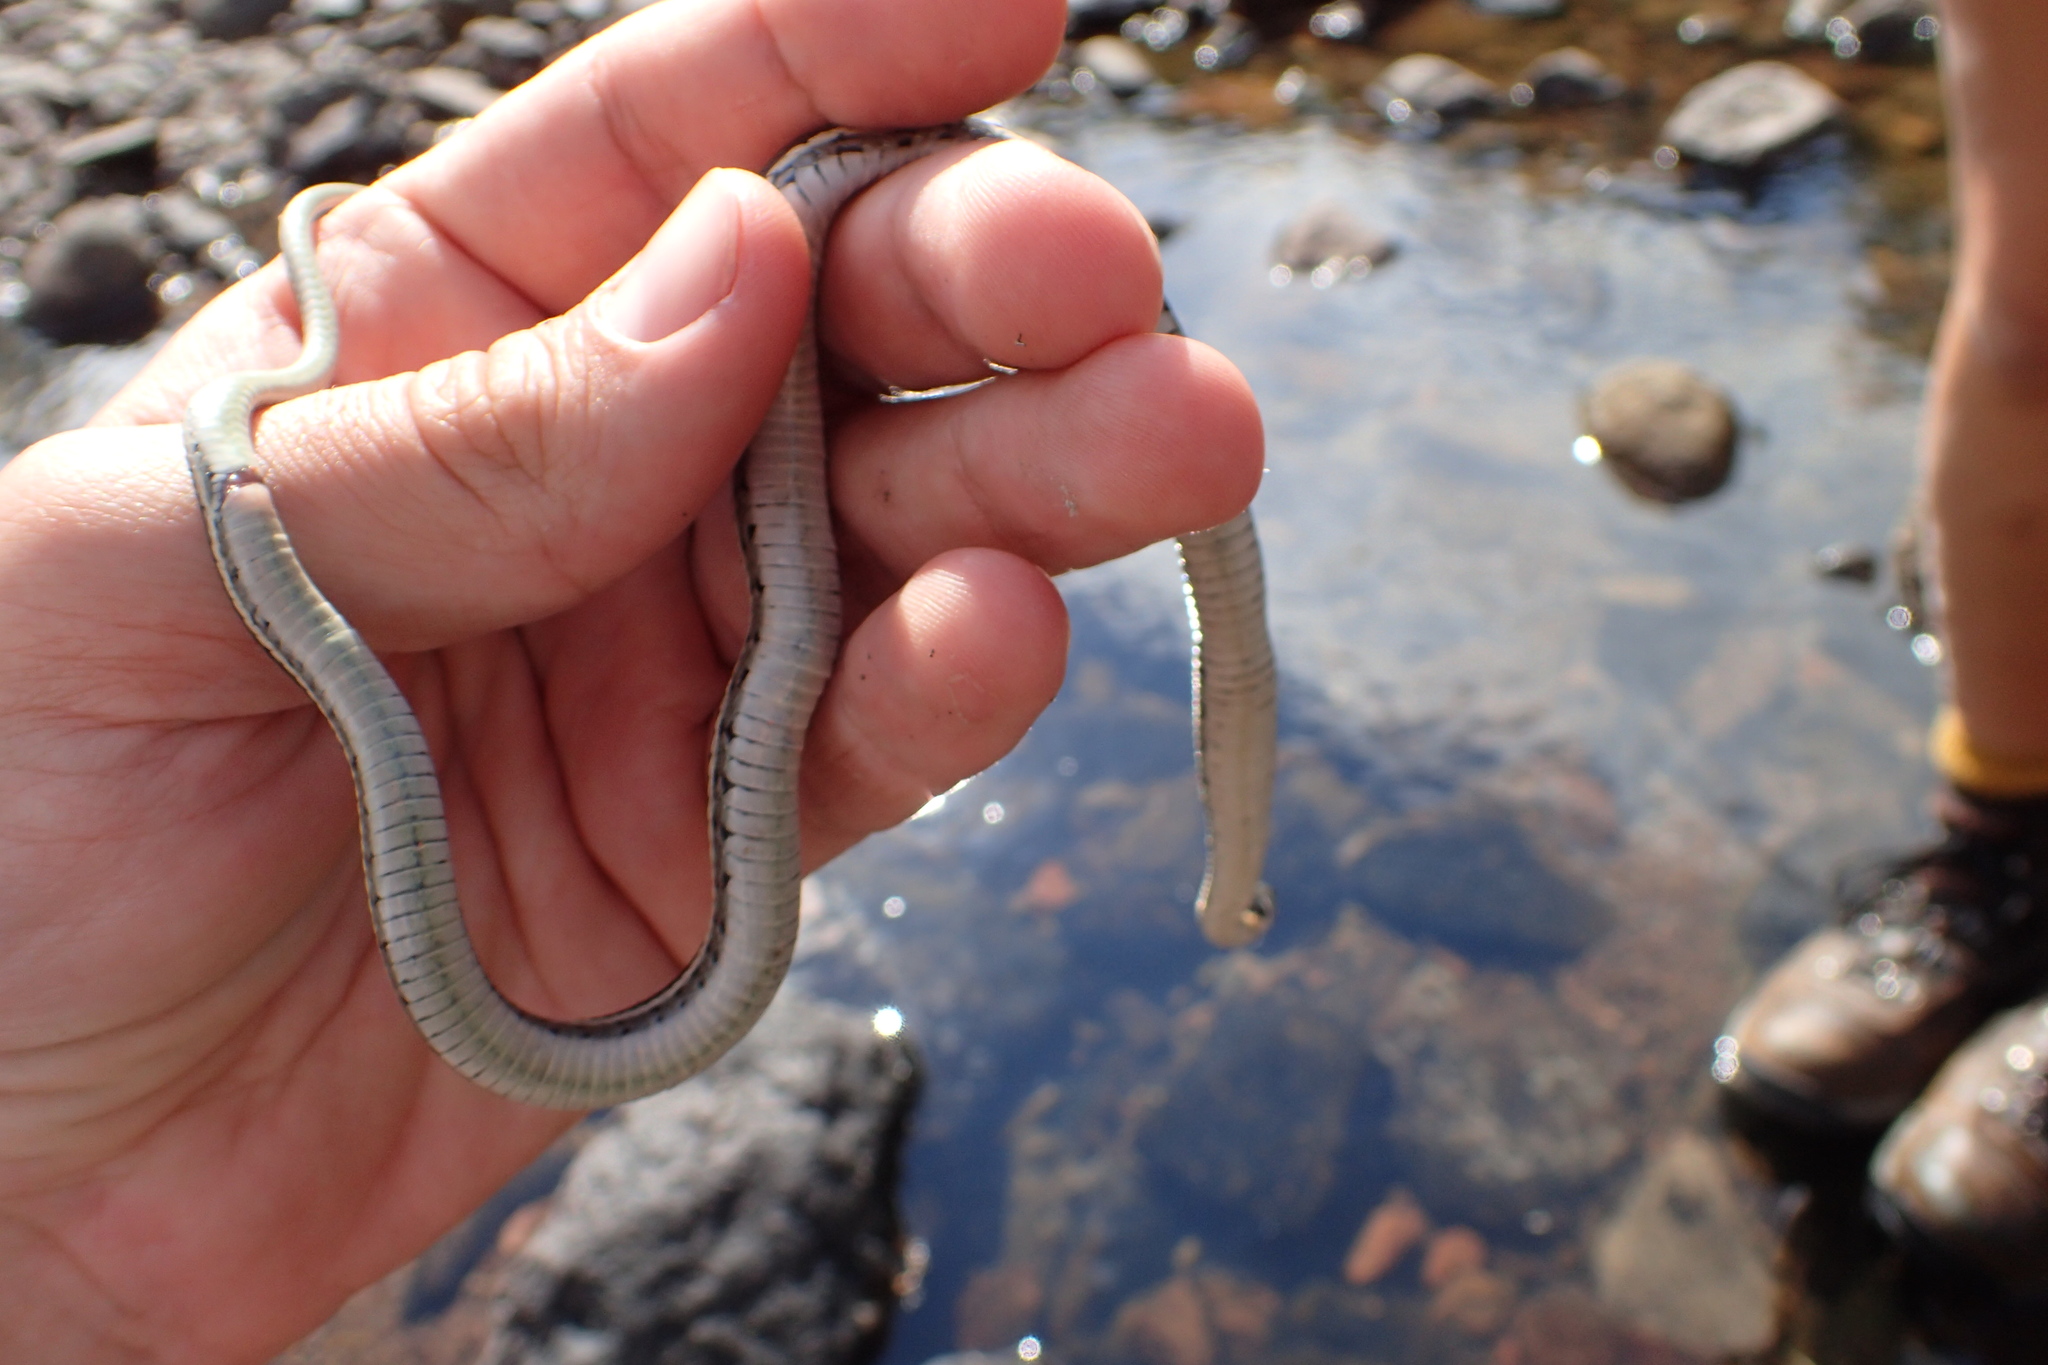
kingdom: Animalia
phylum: Chordata
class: Squamata
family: Colubridae
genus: Thamnophis
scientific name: Thamnophis cyrtopsis
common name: Black-necked gartersnake
